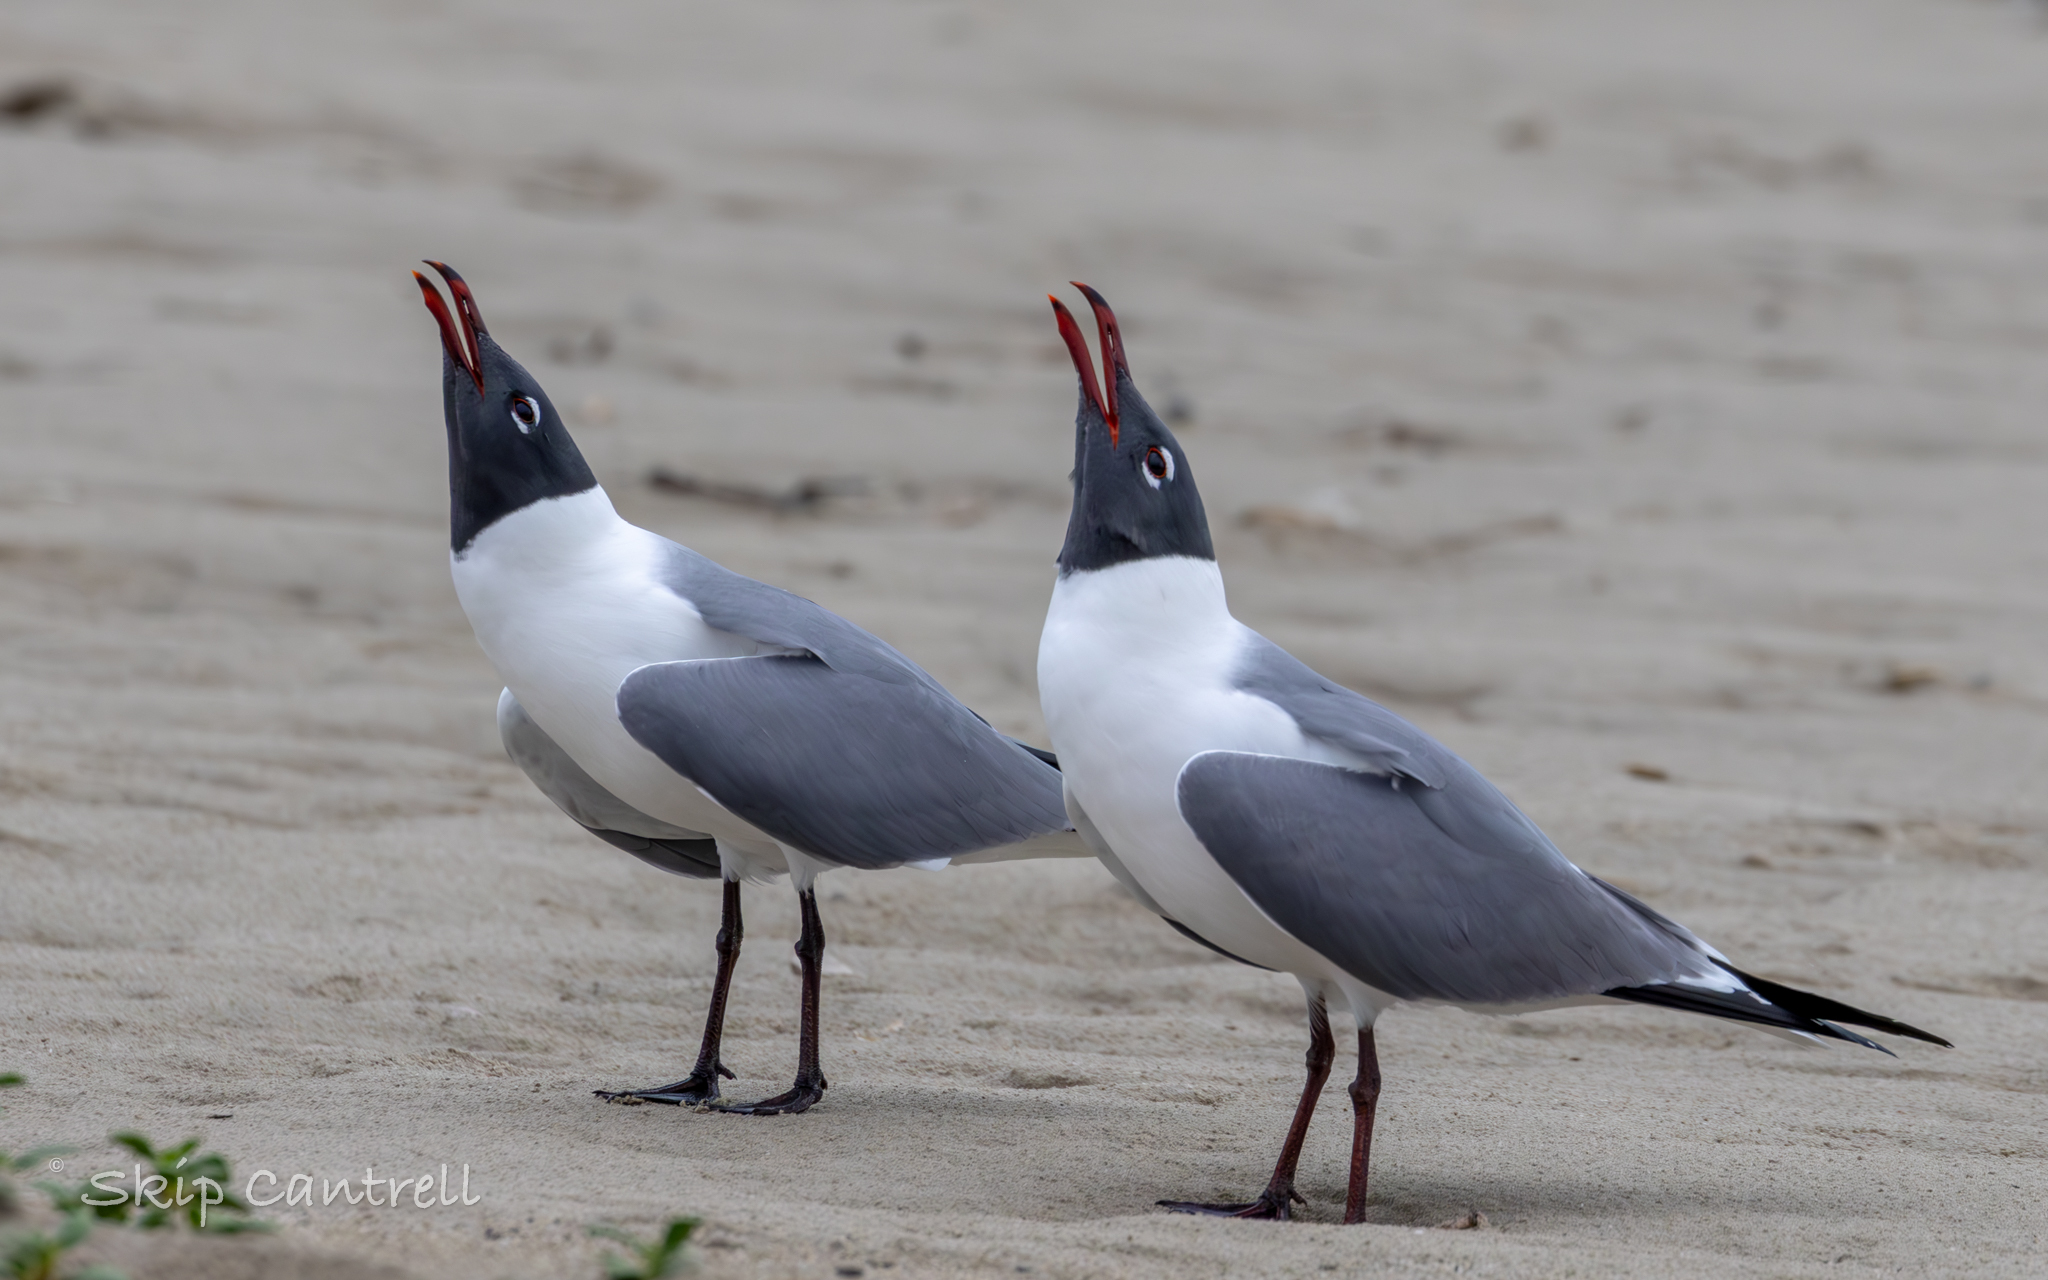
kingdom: Animalia
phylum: Chordata
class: Aves
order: Charadriiformes
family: Laridae
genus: Leucophaeus
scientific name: Leucophaeus atricilla
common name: Laughing gull
